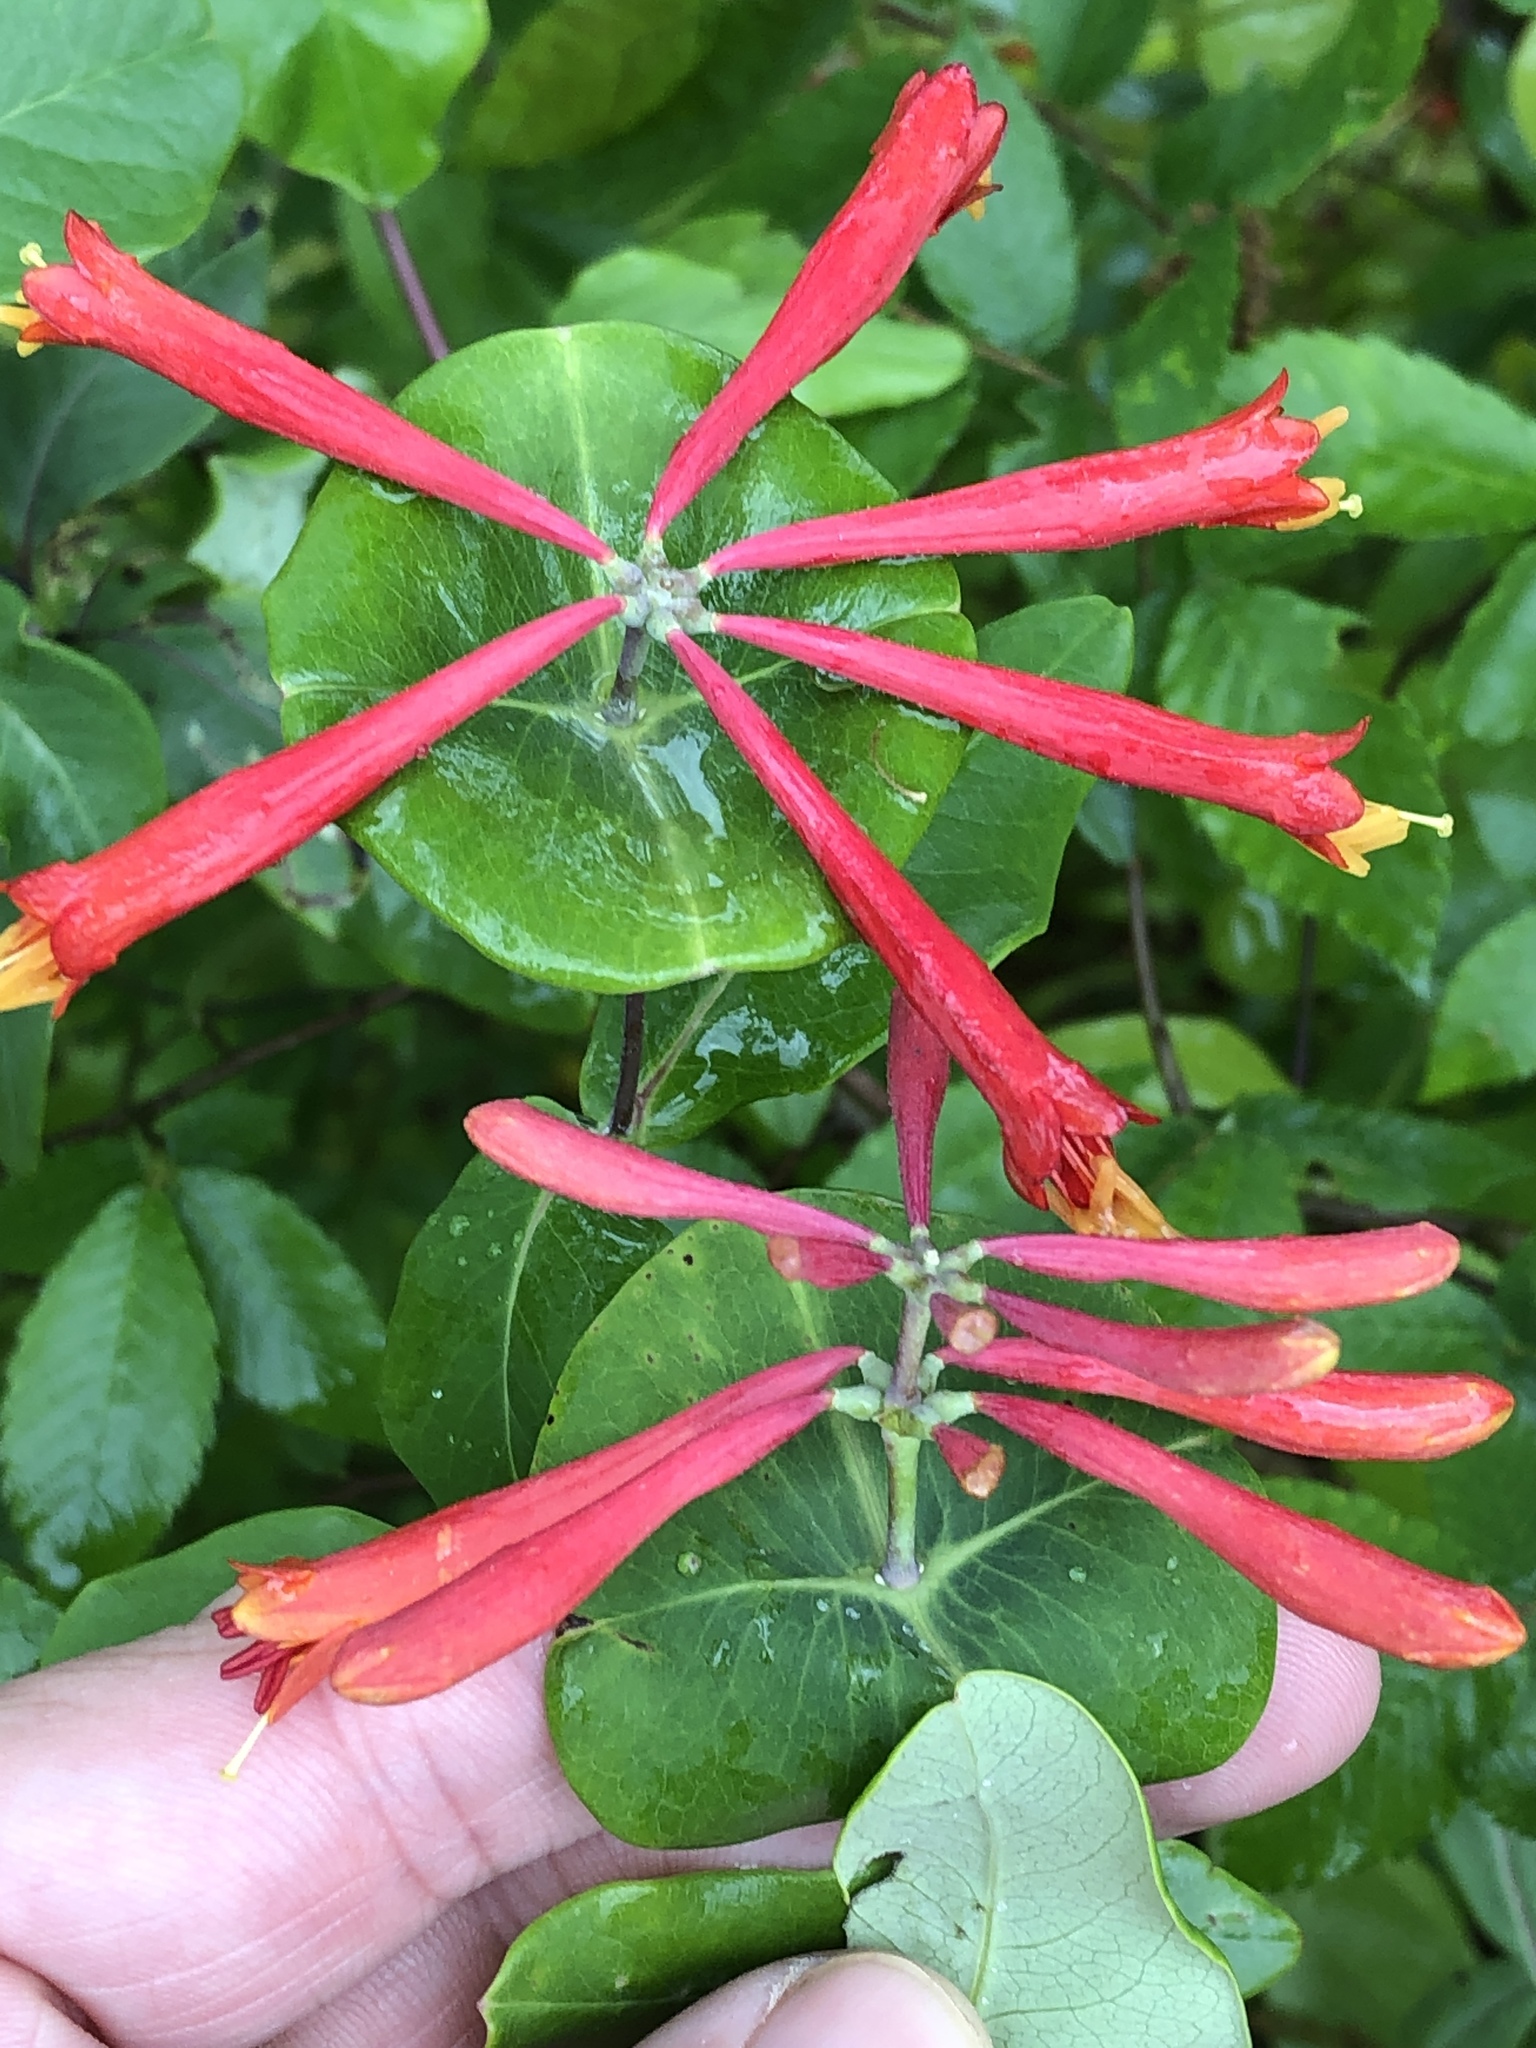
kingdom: Plantae
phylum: Tracheophyta
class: Magnoliopsida
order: Dipsacales
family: Caprifoliaceae
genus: Lonicera
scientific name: Lonicera sempervirens
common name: Coral honeysuckle
